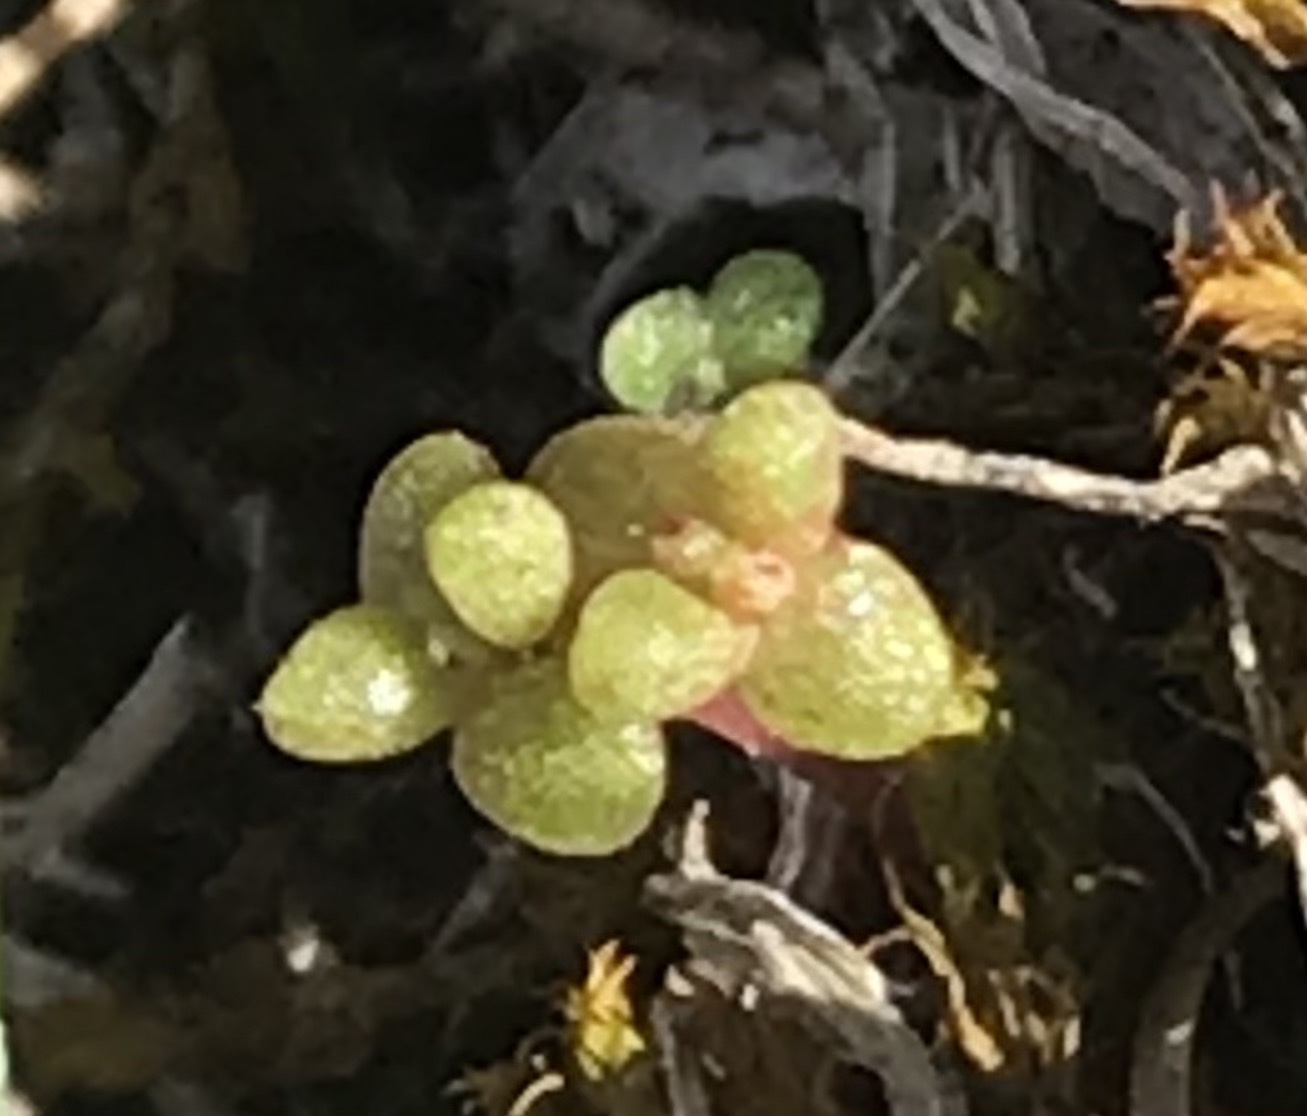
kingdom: Plantae
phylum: Tracheophyta
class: Magnoliopsida
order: Saxifragales
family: Crassulaceae
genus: Crassula
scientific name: Crassula connata
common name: Erect pygmyweed
